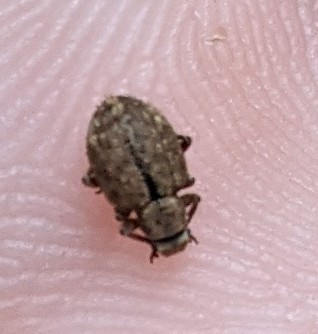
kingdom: Animalia
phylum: Arthropoda
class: Insecta
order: Coleoptera
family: Curculionidae
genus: Strophosoma
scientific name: Strophosoma melanogrammum
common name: Weevil
